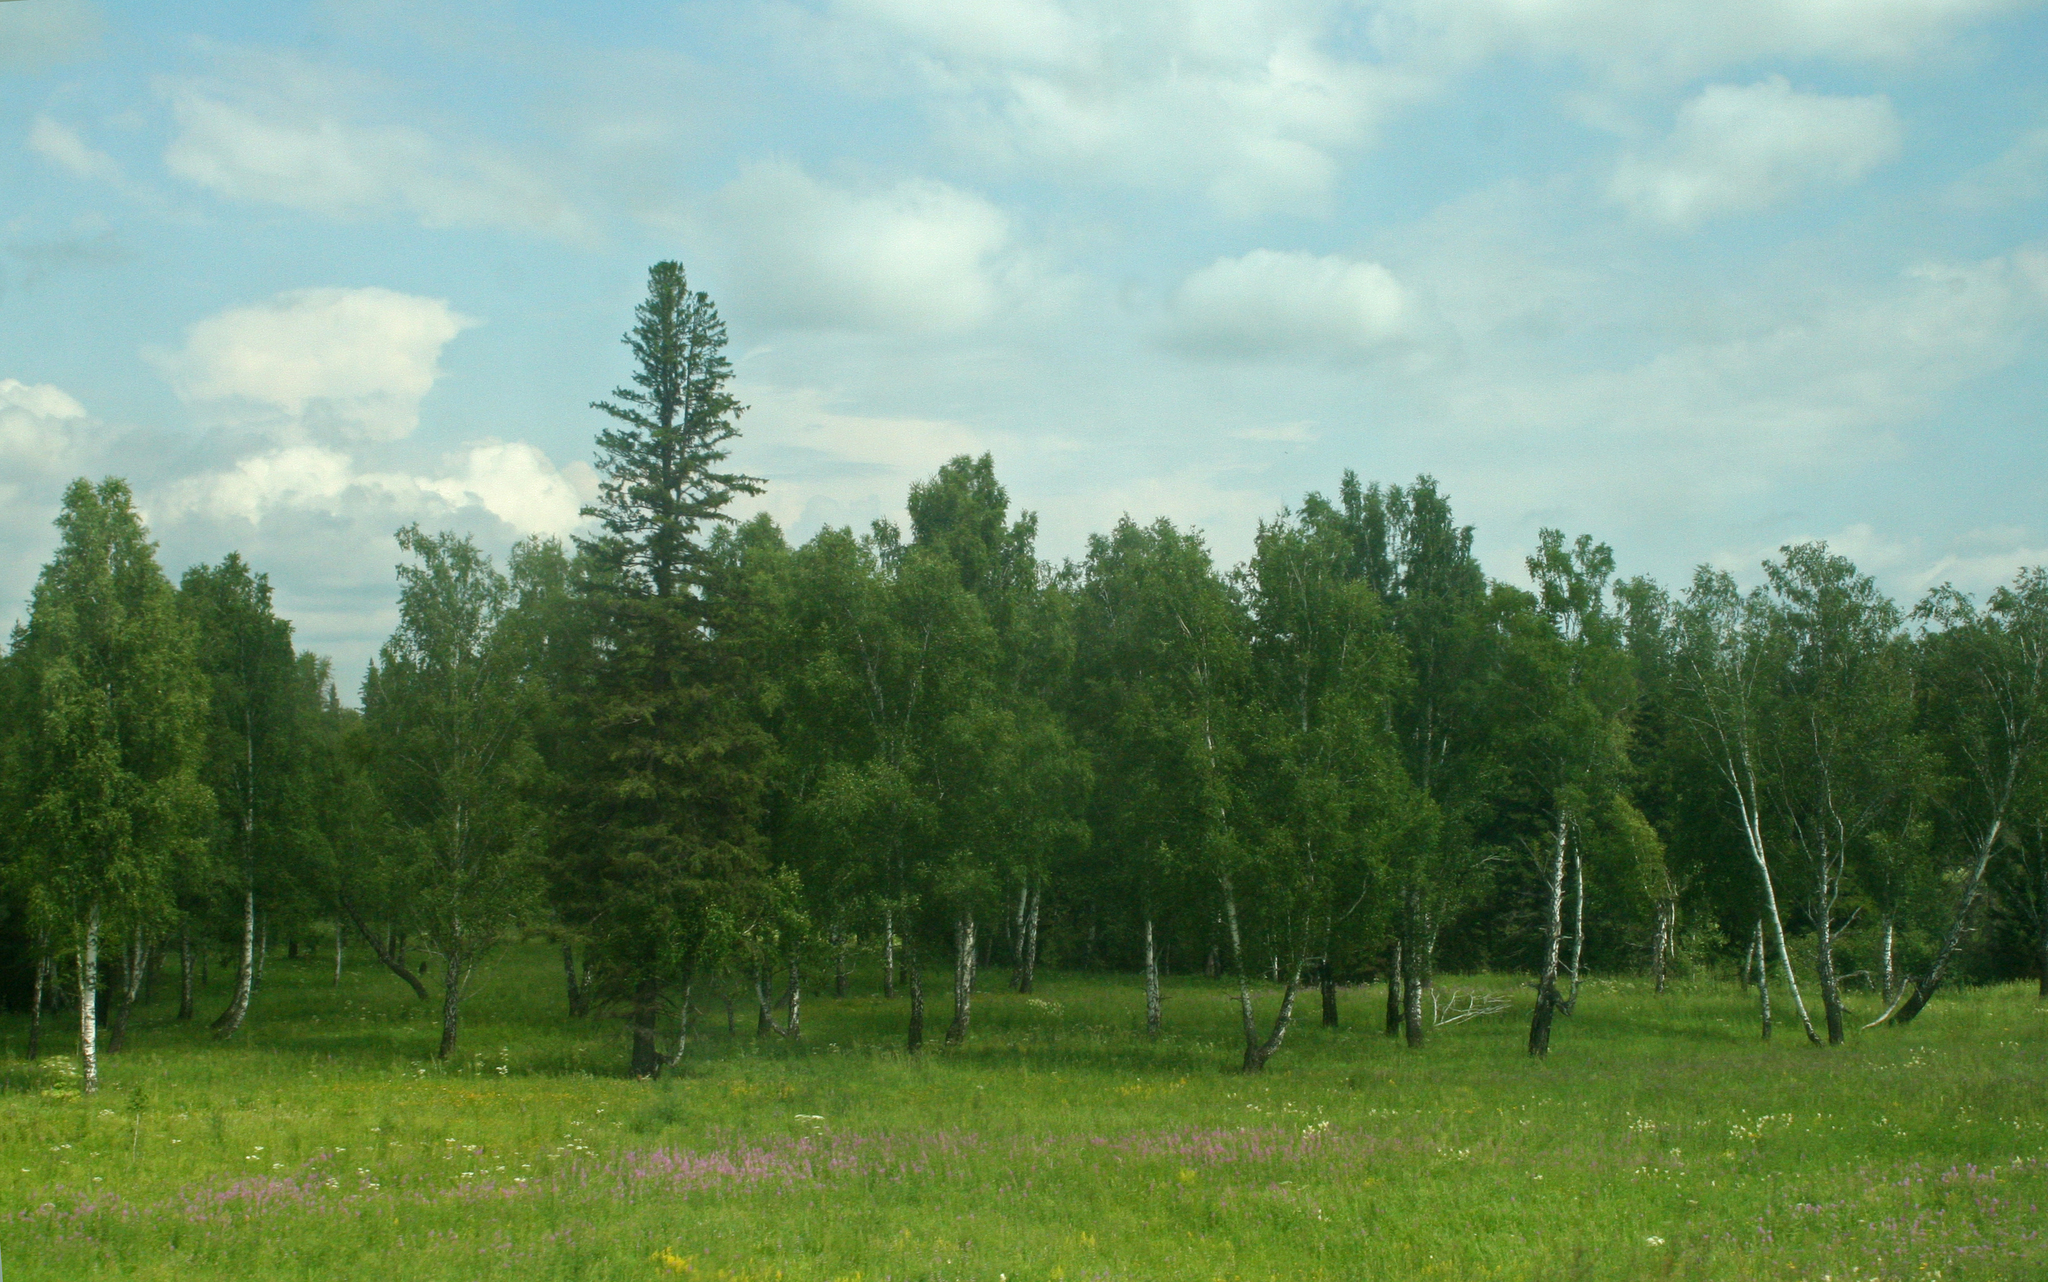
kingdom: Plantae
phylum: Tracheophyta
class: Pinopsida
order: Pinales
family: Pinaceae
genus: Picea
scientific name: Picea obovata
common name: Siberian spruce
